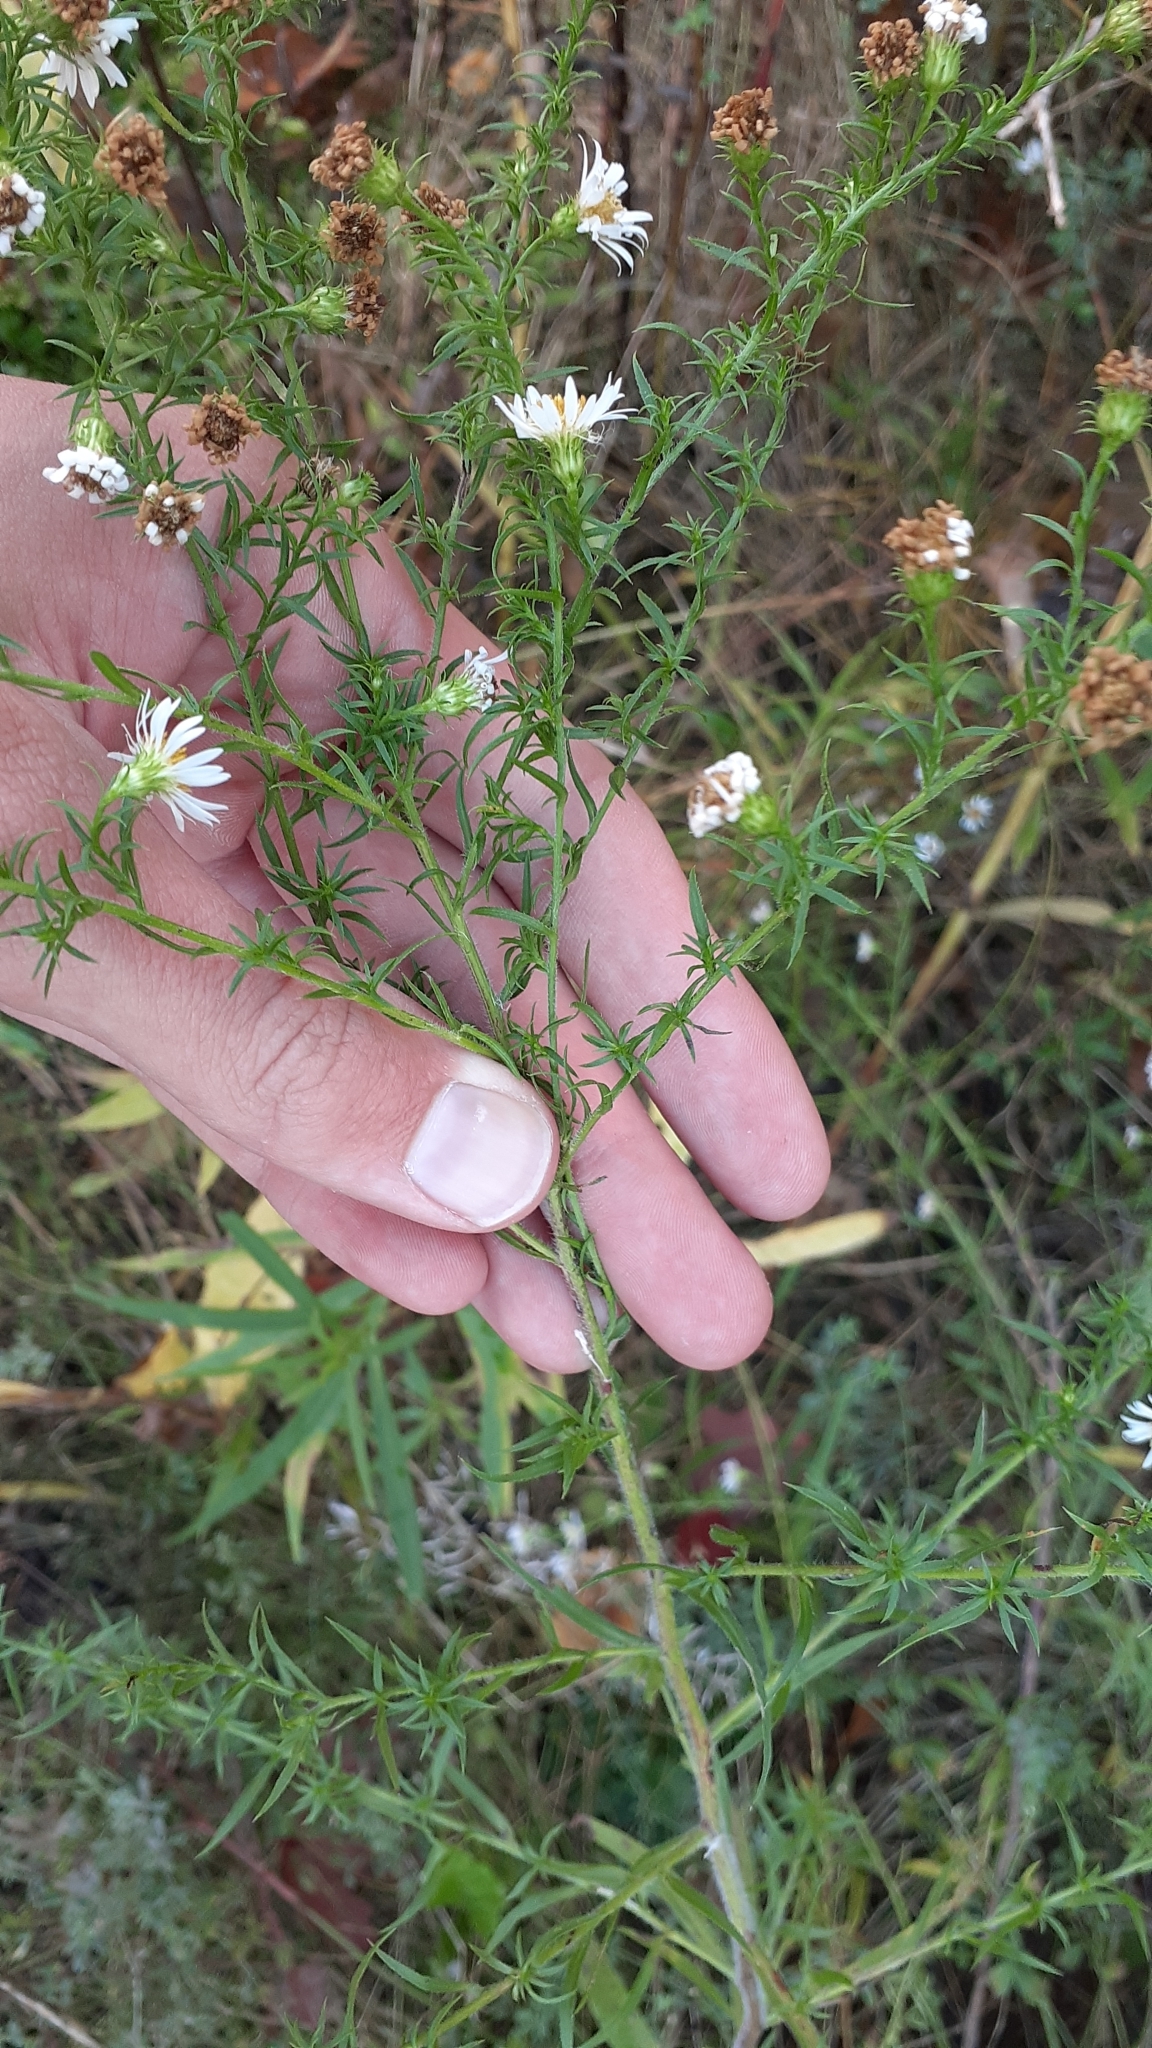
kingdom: Plantae
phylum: Tracheophyta
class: Magnoliopsida
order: Asterales
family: Asteraceae
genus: Symphyotrichum
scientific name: Symphyotrichum pilosum
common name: Awl aster
